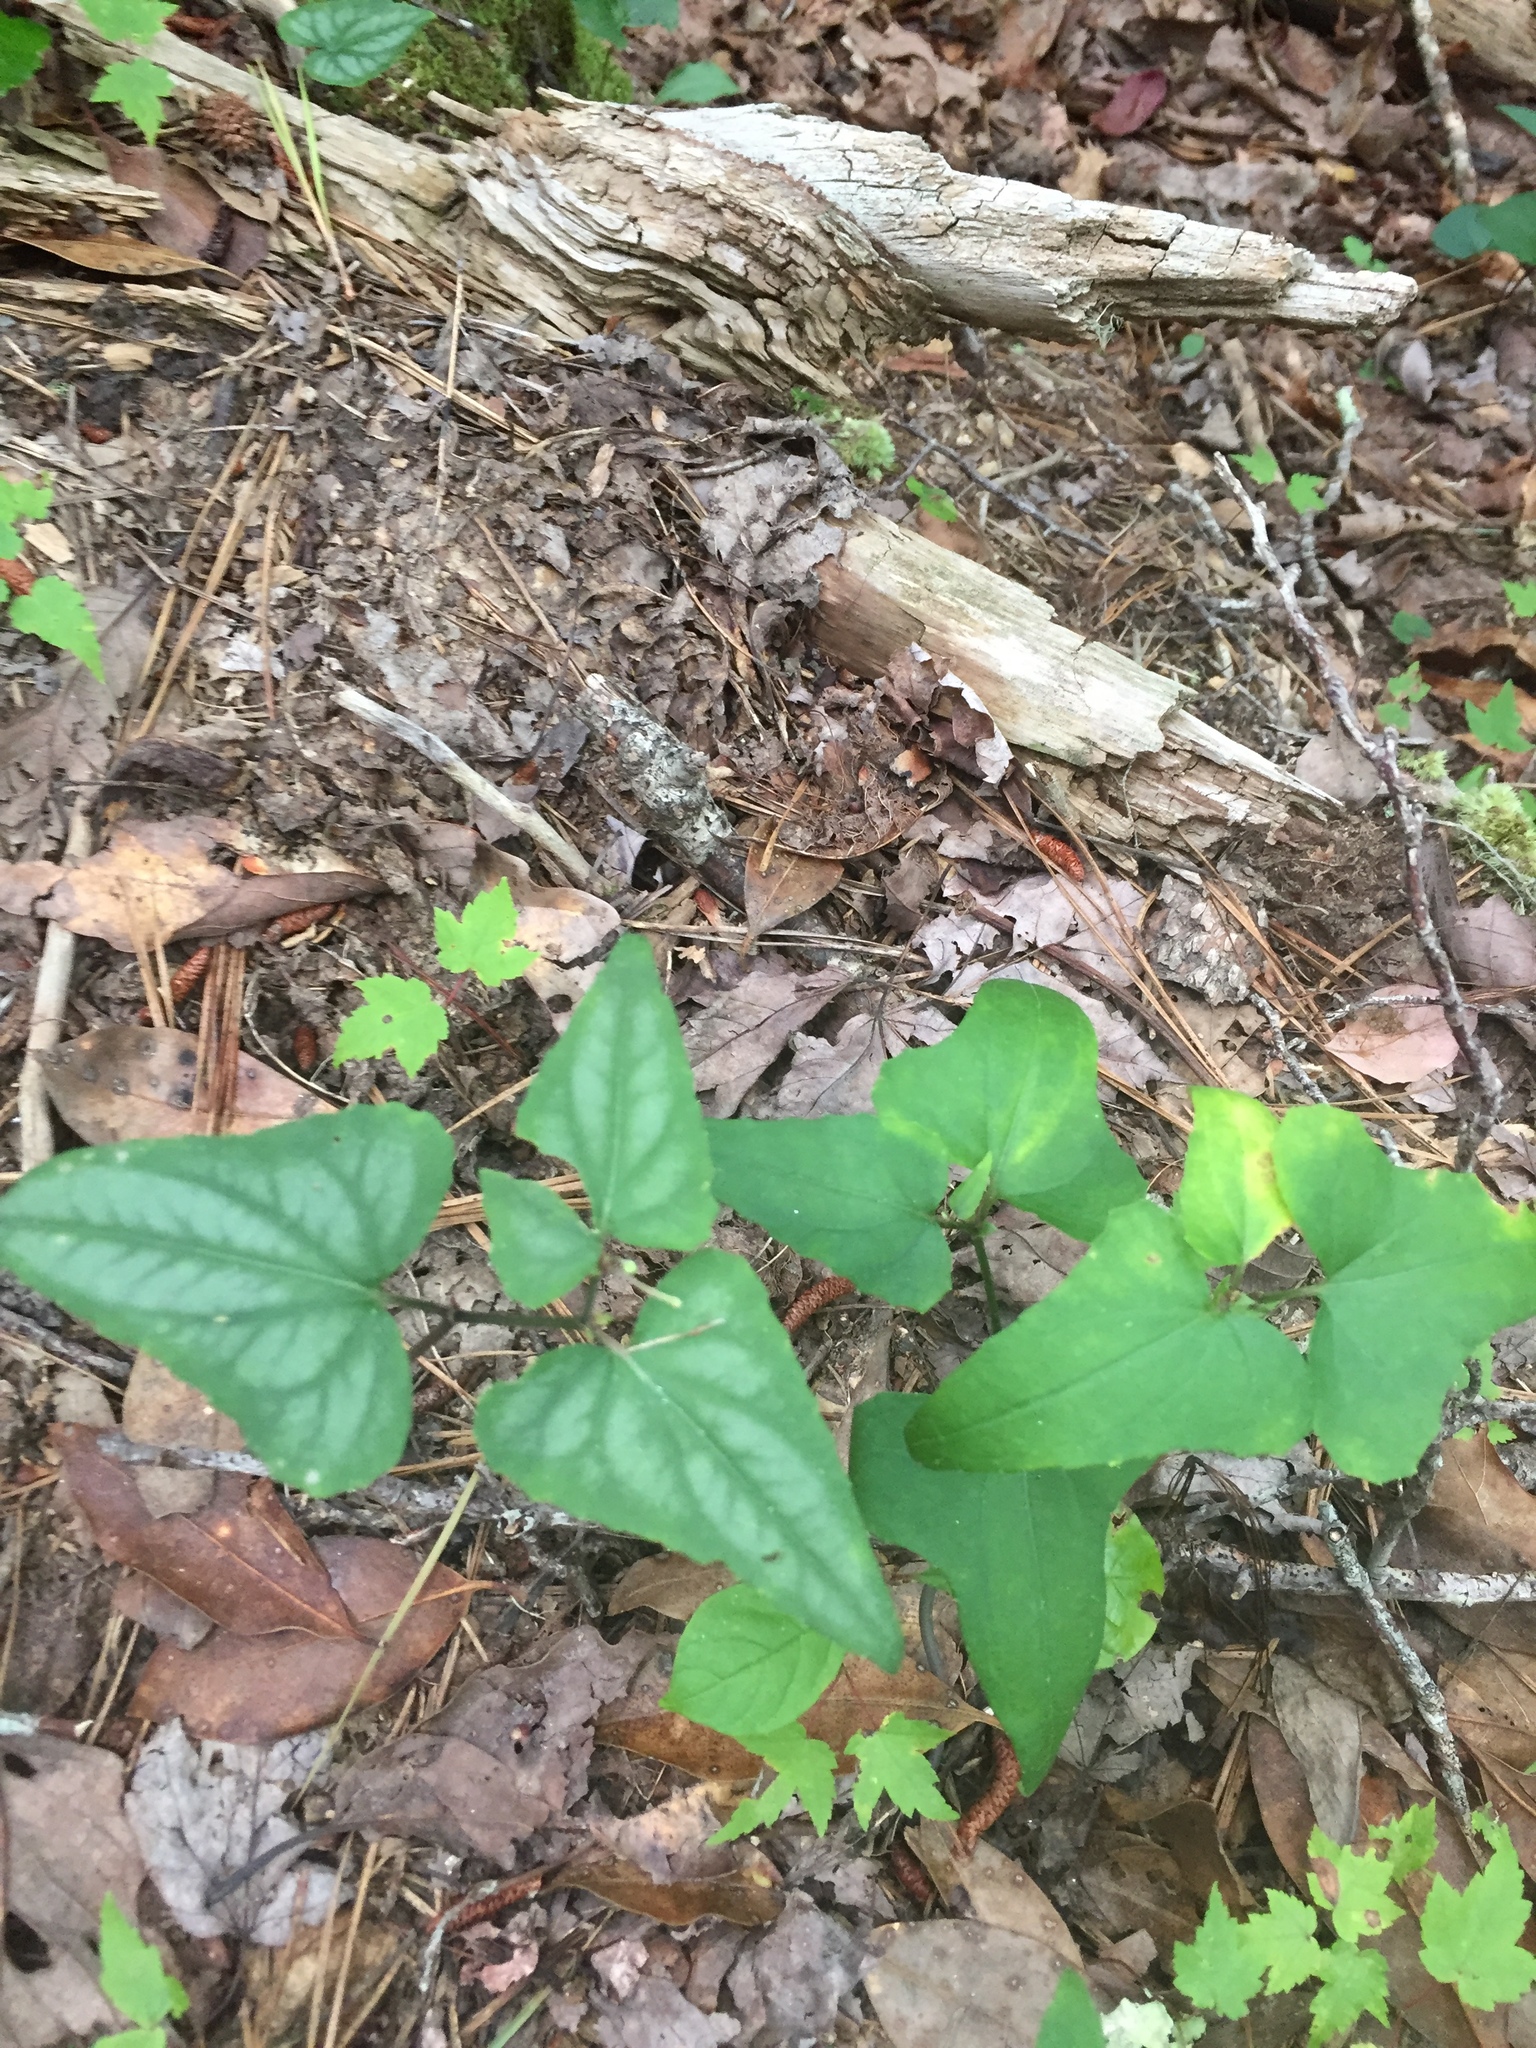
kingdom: Plantae
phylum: Tracheophyta
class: Magnoliopsida
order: Malpighiales
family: Violaceae
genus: Viola
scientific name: Viola hastata
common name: Spear-leaf violet
